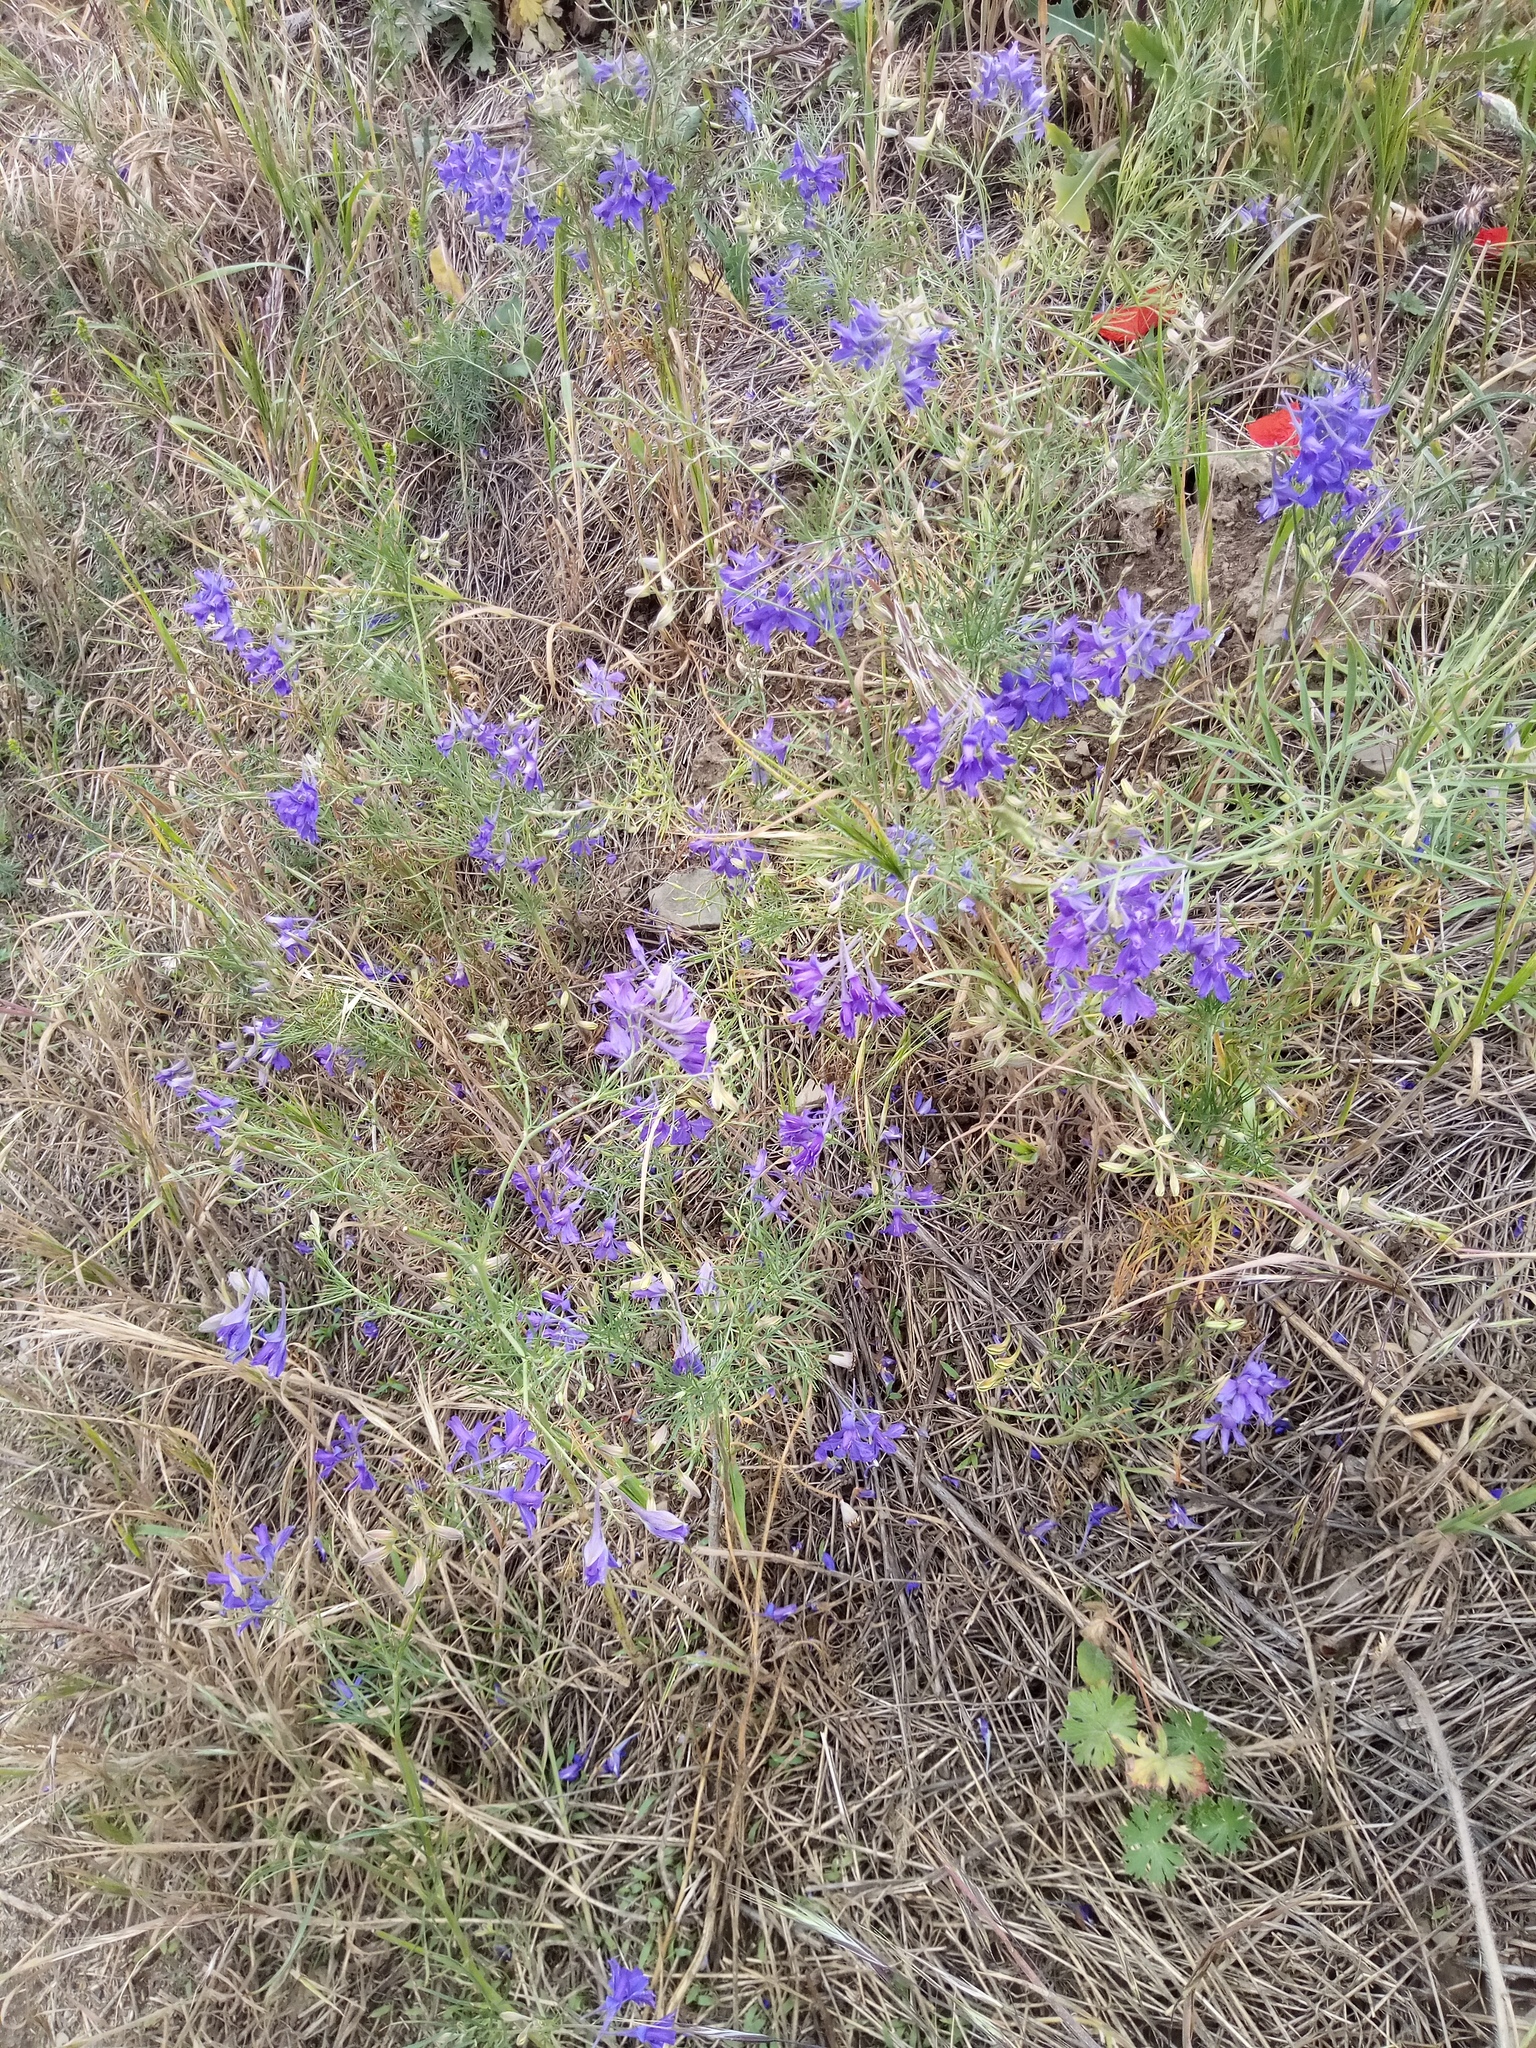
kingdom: Plantae
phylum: Tracheophyta
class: Magnoliopsida
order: Ranunculales
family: Ranunculaceae
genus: Delphinium
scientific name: Delphinium consolida
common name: Branching larkspur
